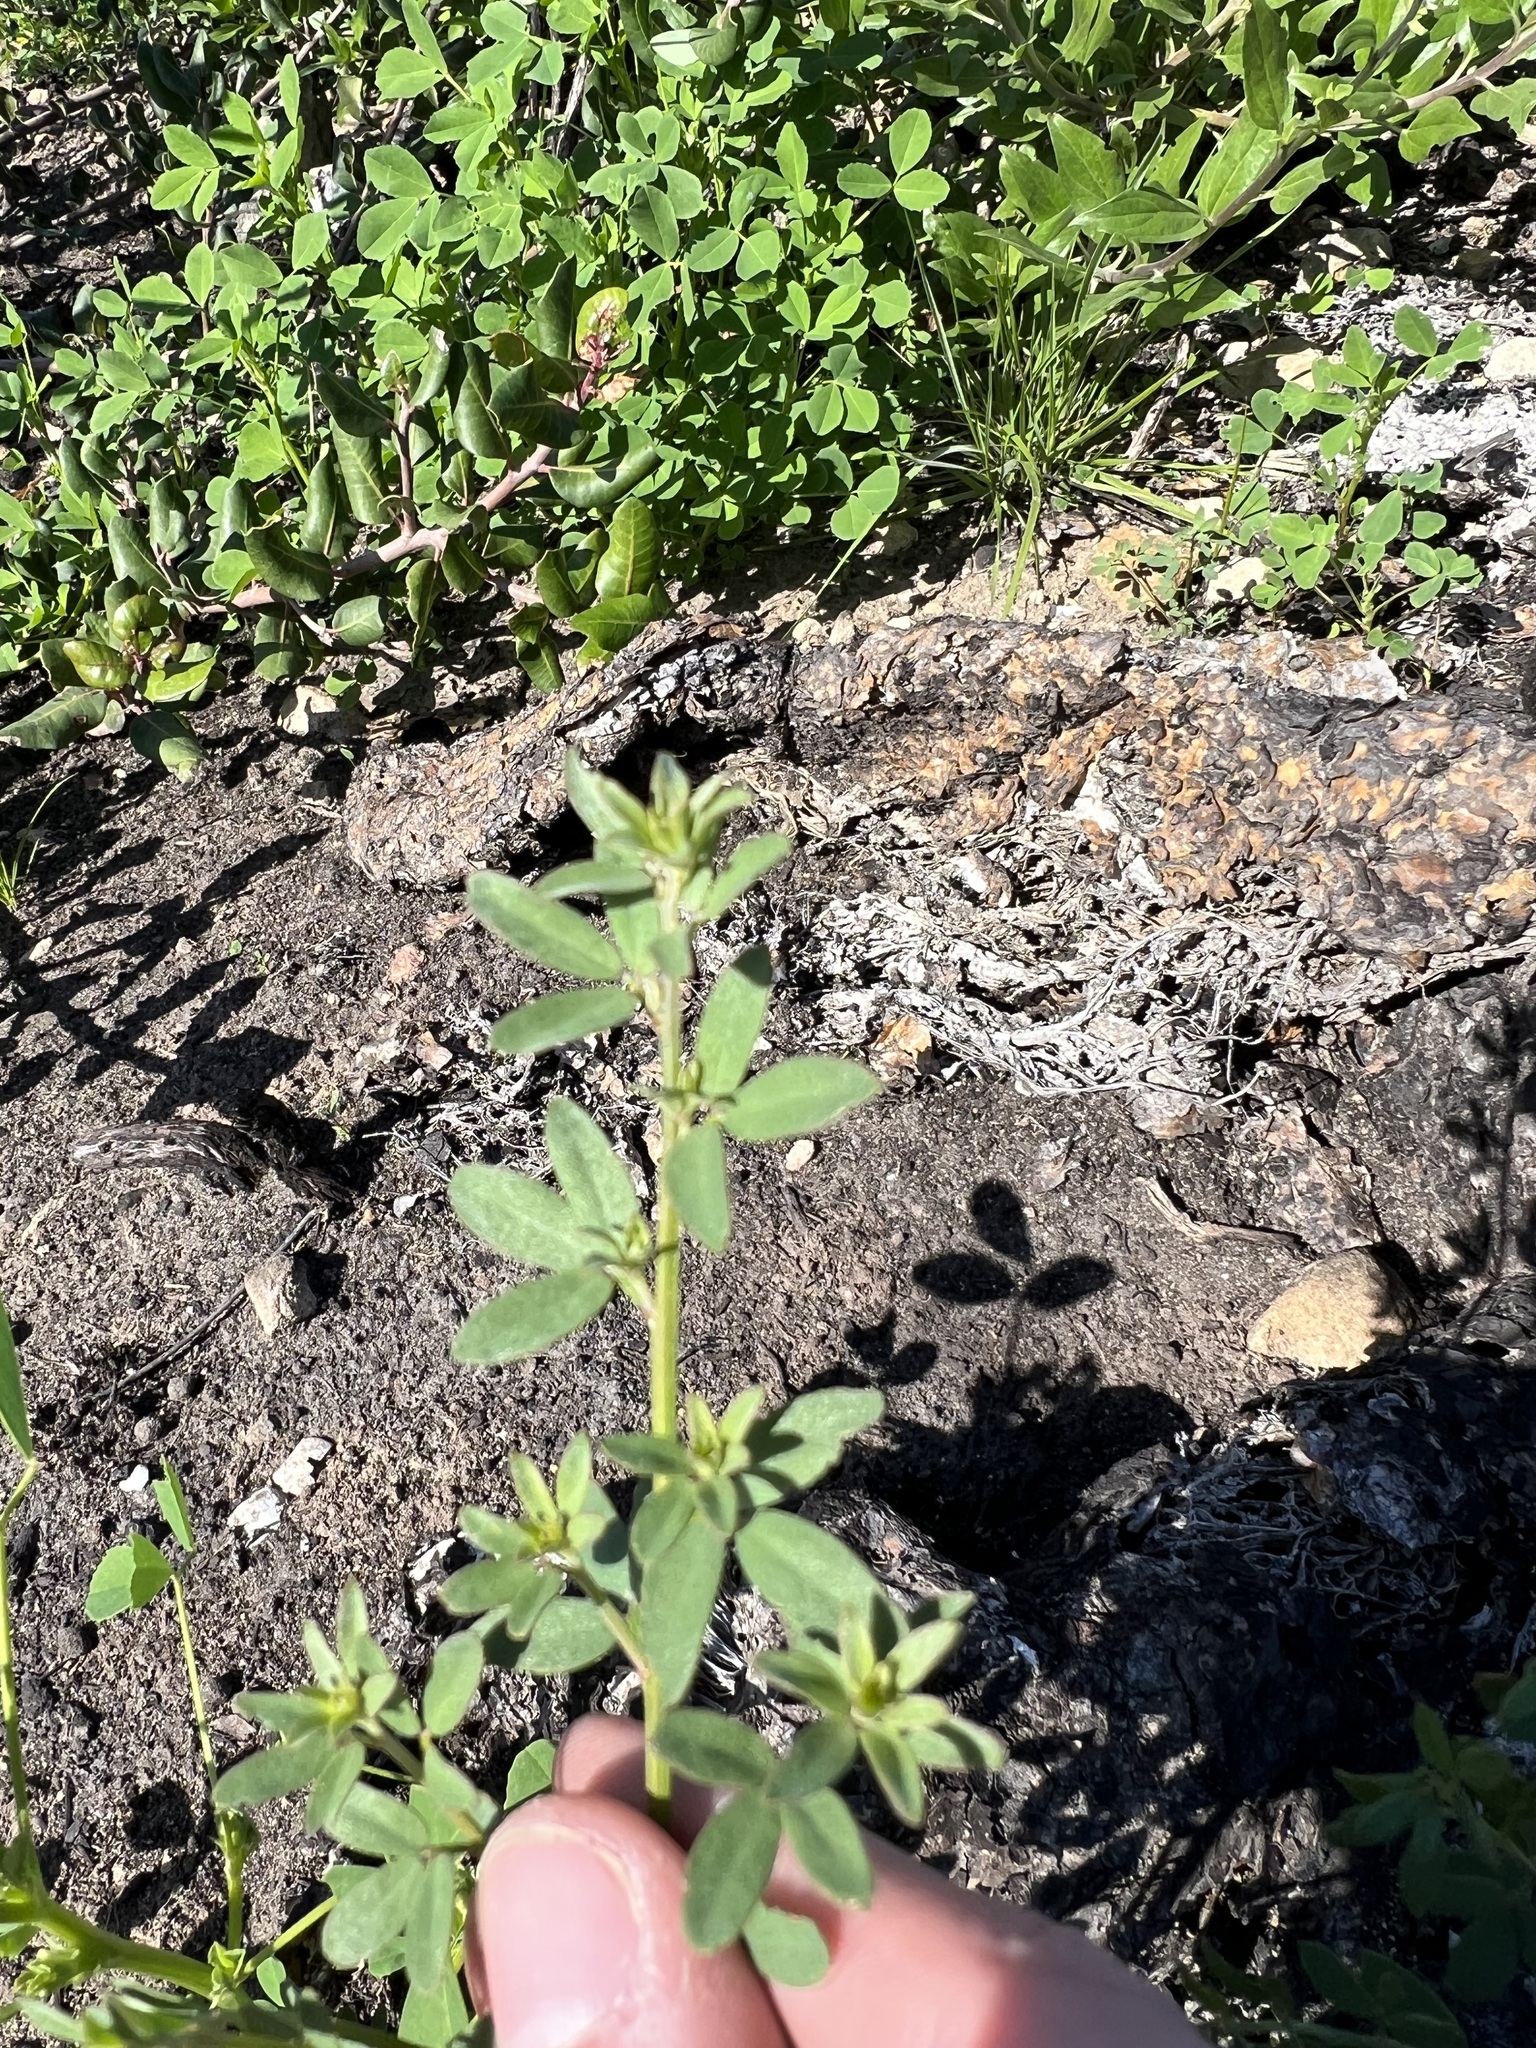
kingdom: Plantae
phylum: Tracheophyta
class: Magnoliopsida
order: Fabales
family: Fabaceae
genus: Acmispon
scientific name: Acmispon glaber
